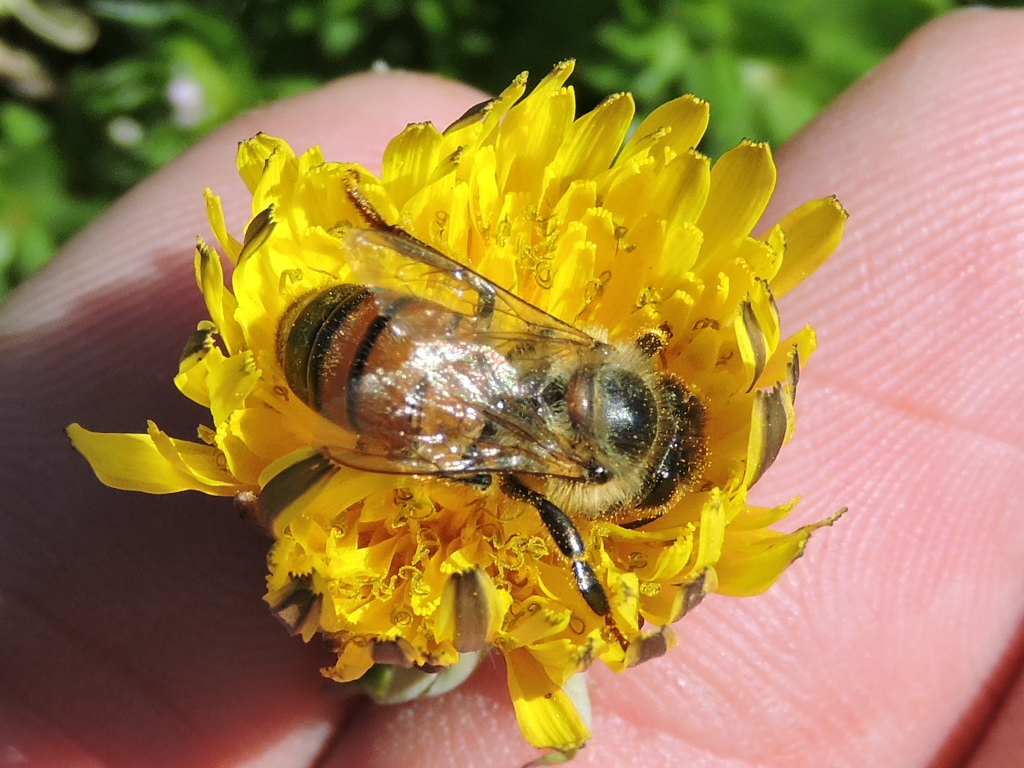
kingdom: Animalia
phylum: Arthropoda
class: Insecta
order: Hymenoptera
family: Apidae
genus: Apis
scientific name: Apis mellifera
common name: Honey bee
